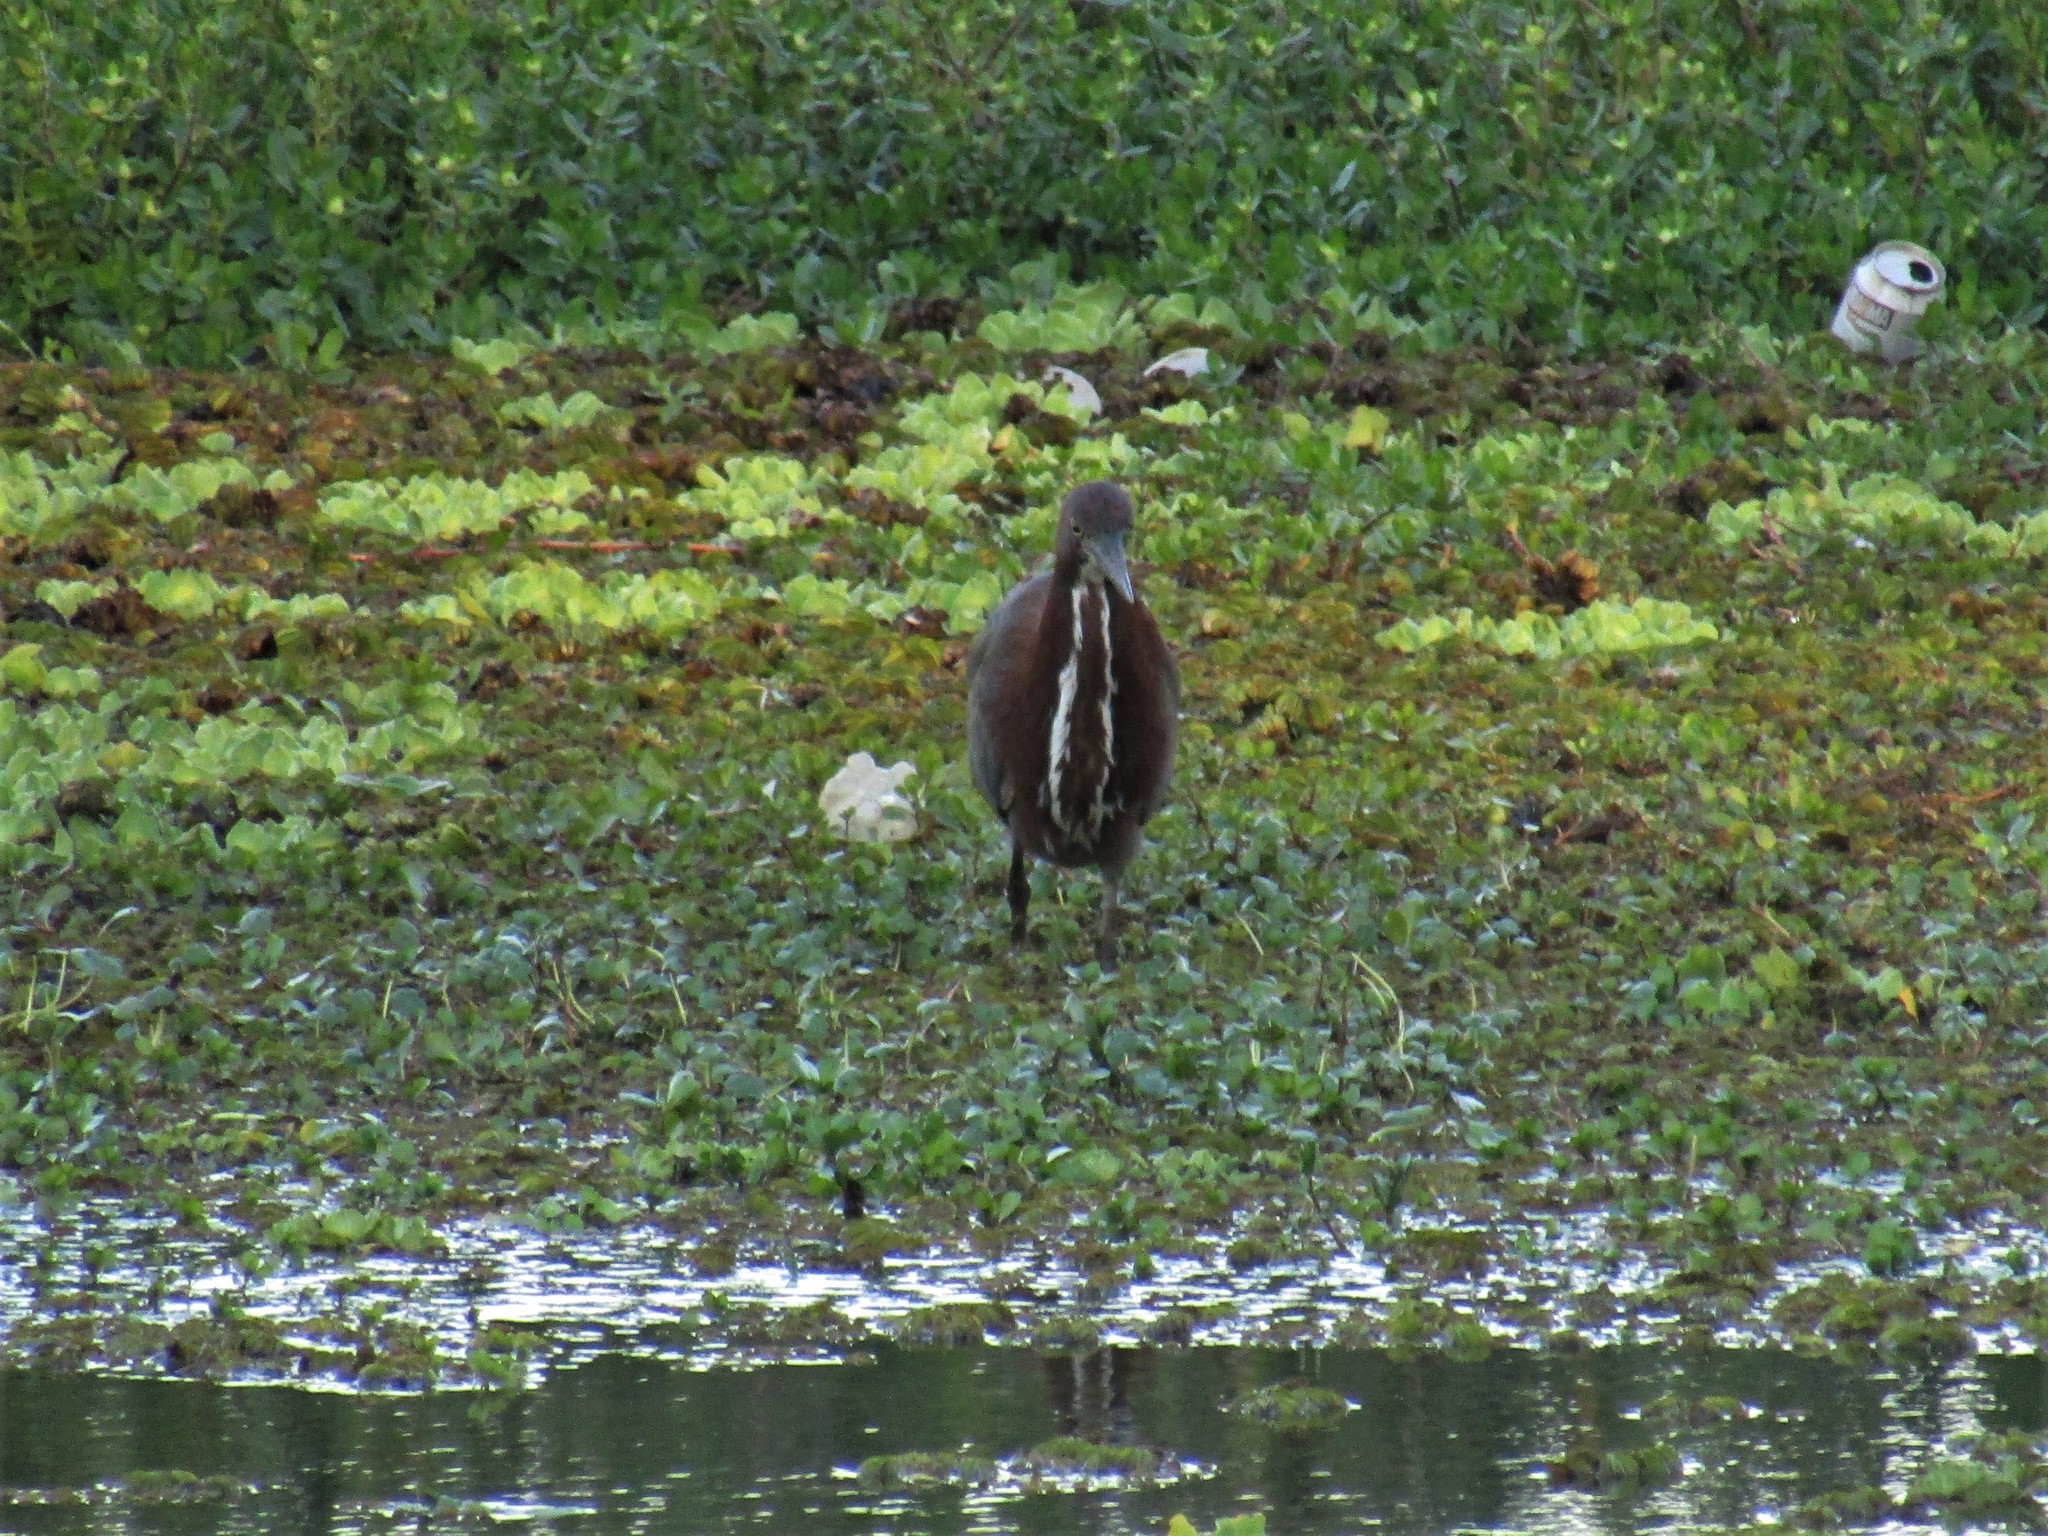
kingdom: Animalia
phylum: Chordata
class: Aves
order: Pelecaniformes
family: Ardeidae
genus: Tigrisoma
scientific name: Tigrisoma lineatum
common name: Rufescent tiger-heron
